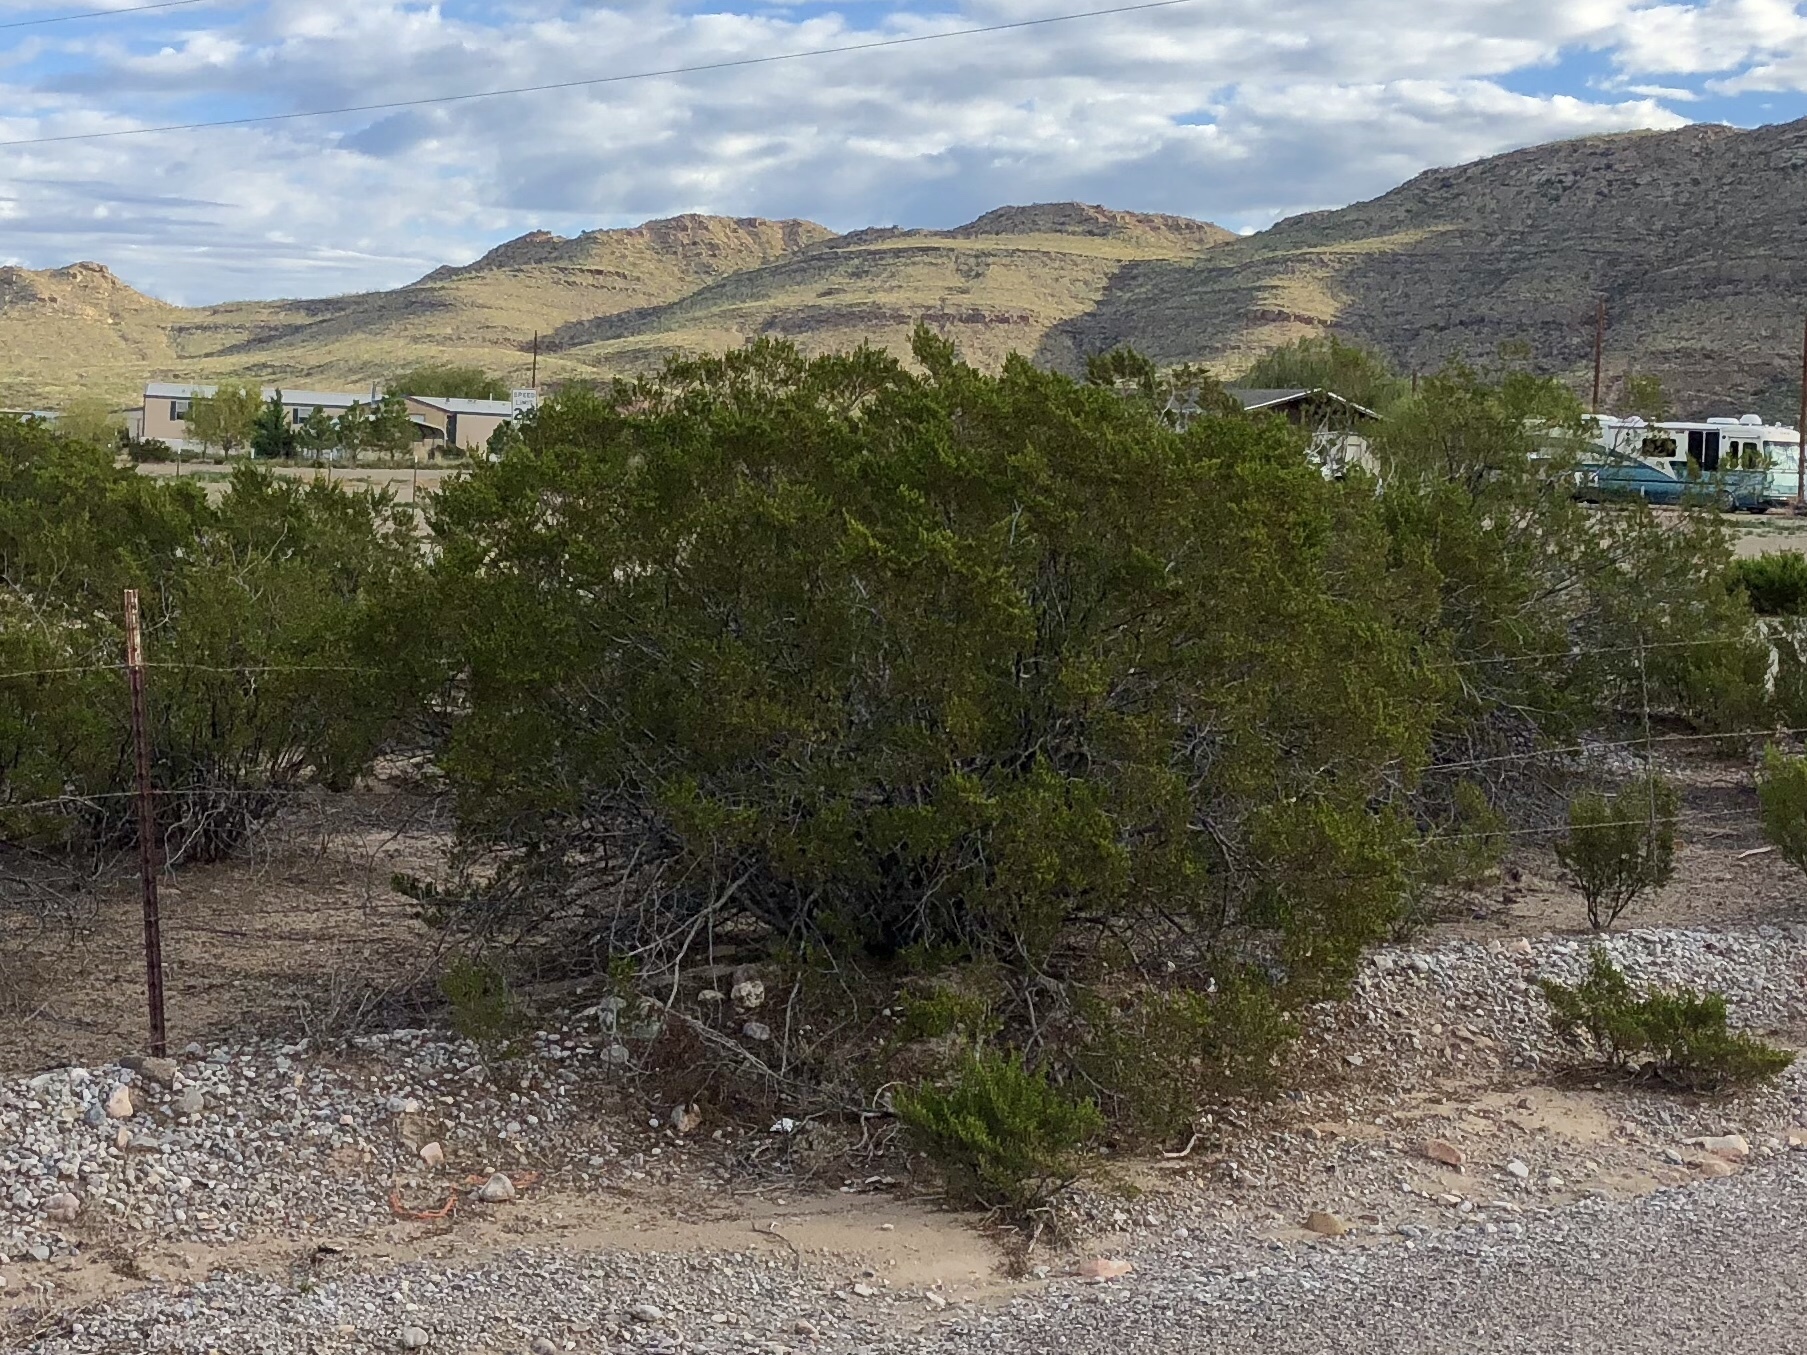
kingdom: Plantae
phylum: Tracheophyta
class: Magnoliopsida
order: Zygophyllales
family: Zygophyllaceae
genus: Larrea
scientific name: Larrea tridentata
